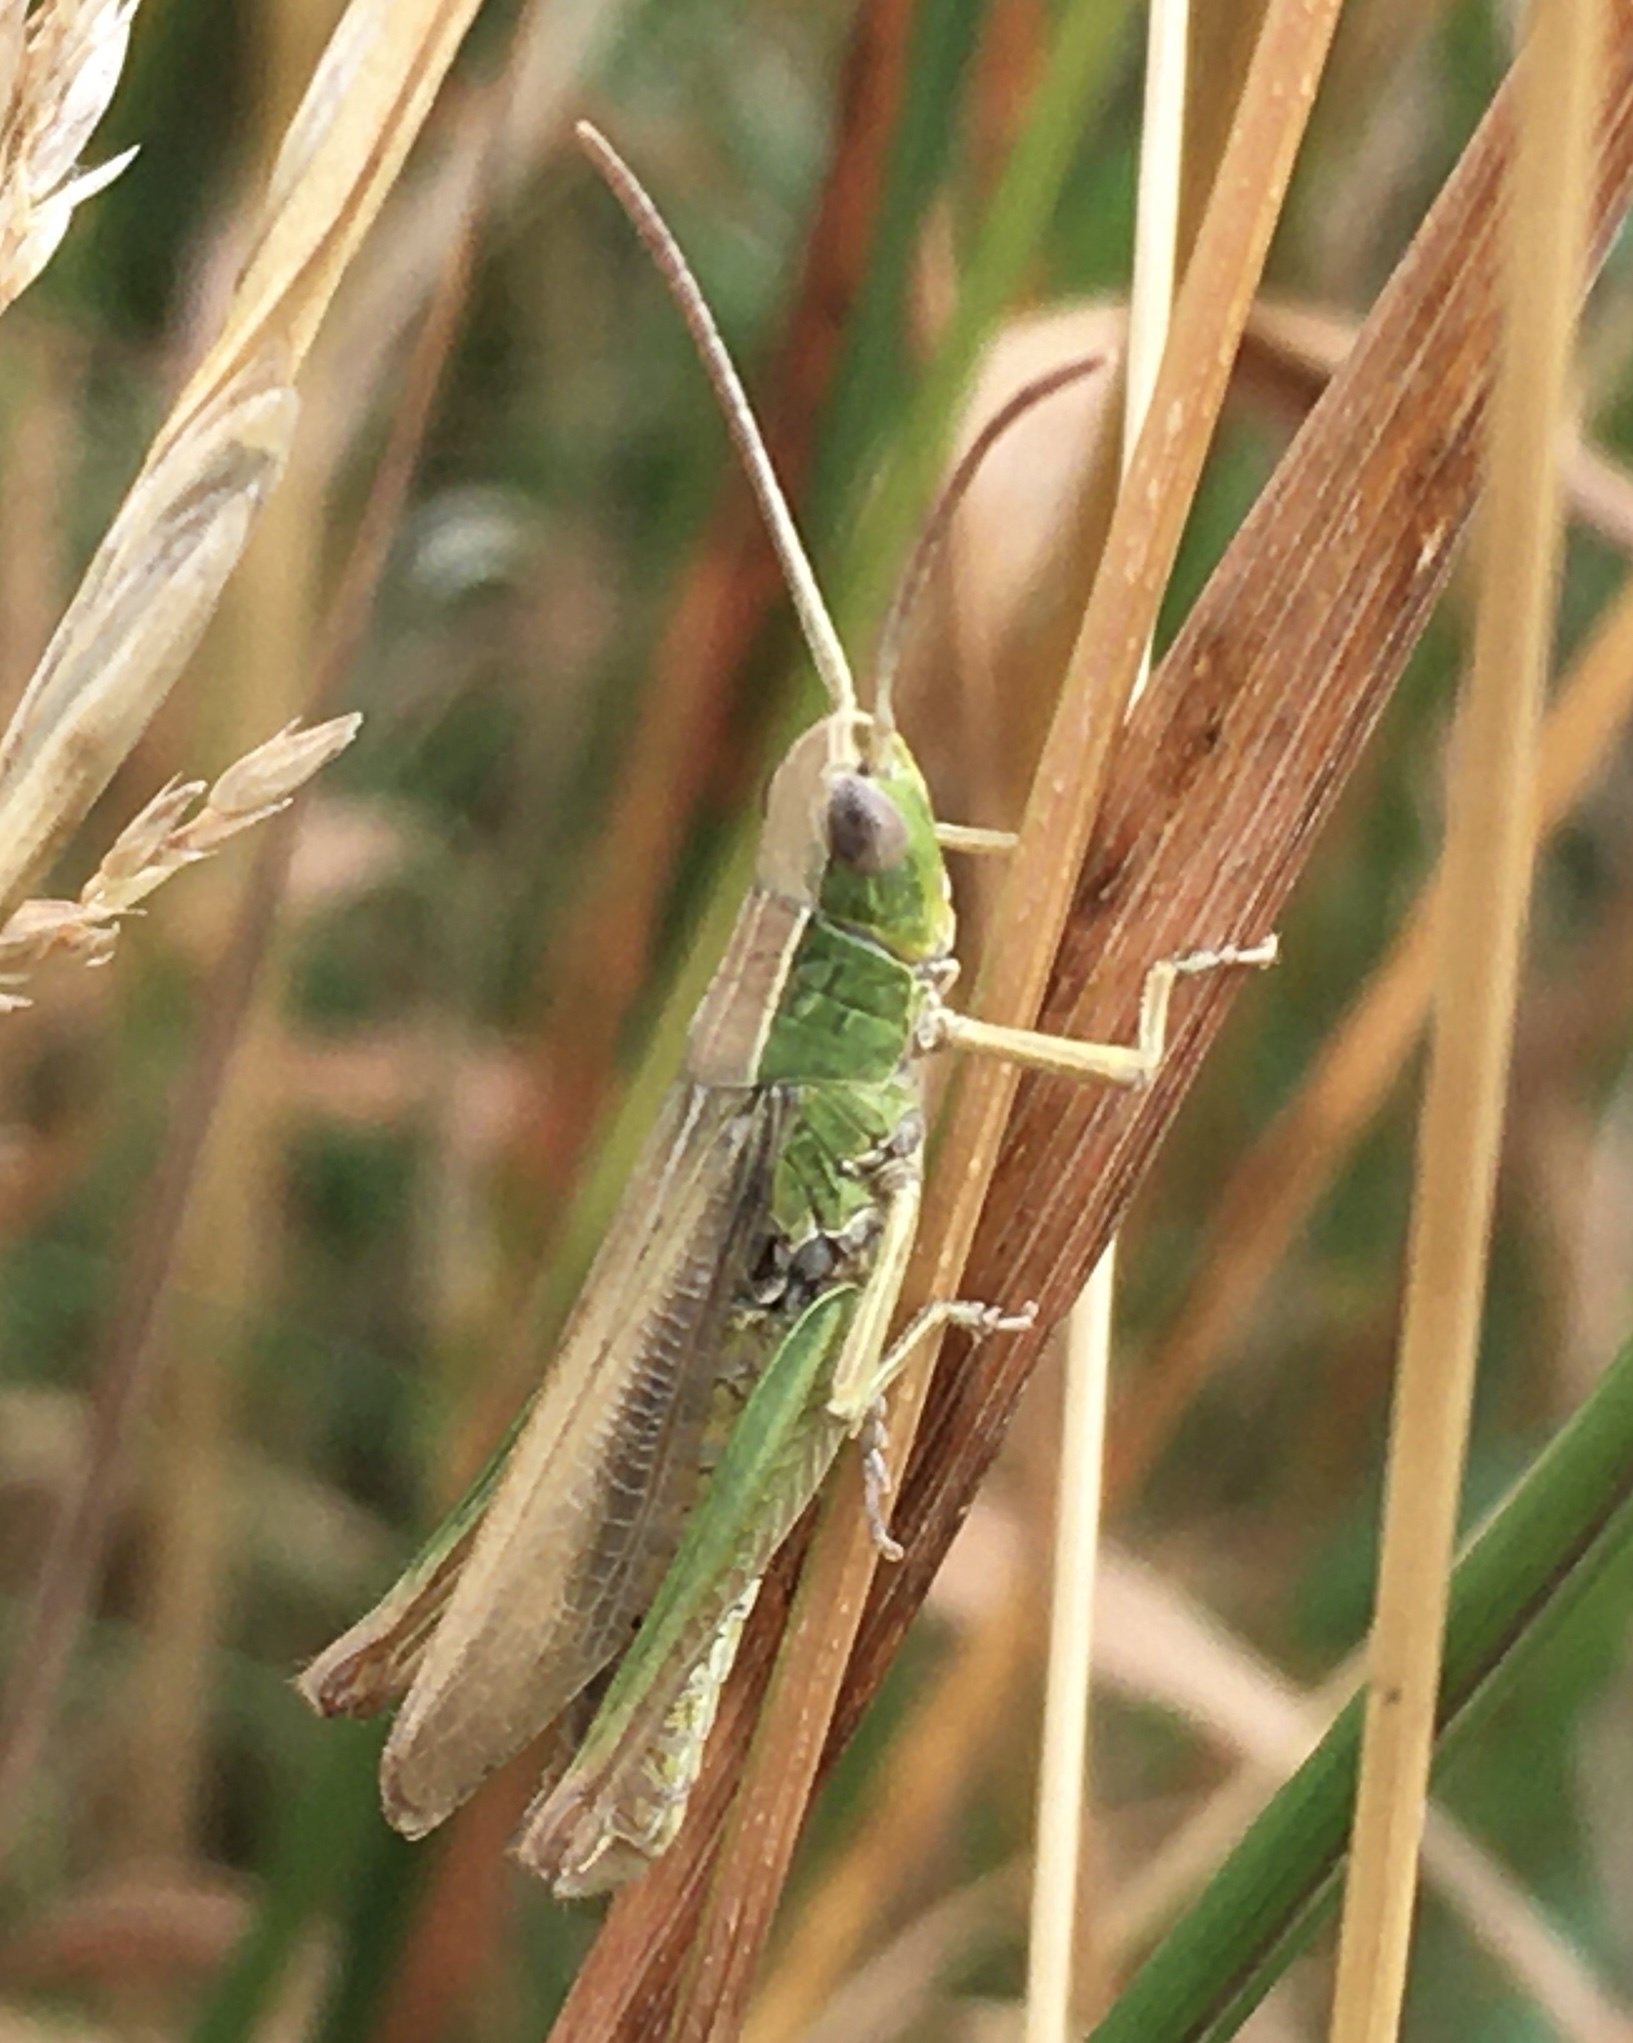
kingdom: Animalia
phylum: Arthropoda
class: Insecta
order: Orthoptera
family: Acrididae
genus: Chorthippus
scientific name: Chorthippus albomarginatus
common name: Lesser marsh grasshopper
